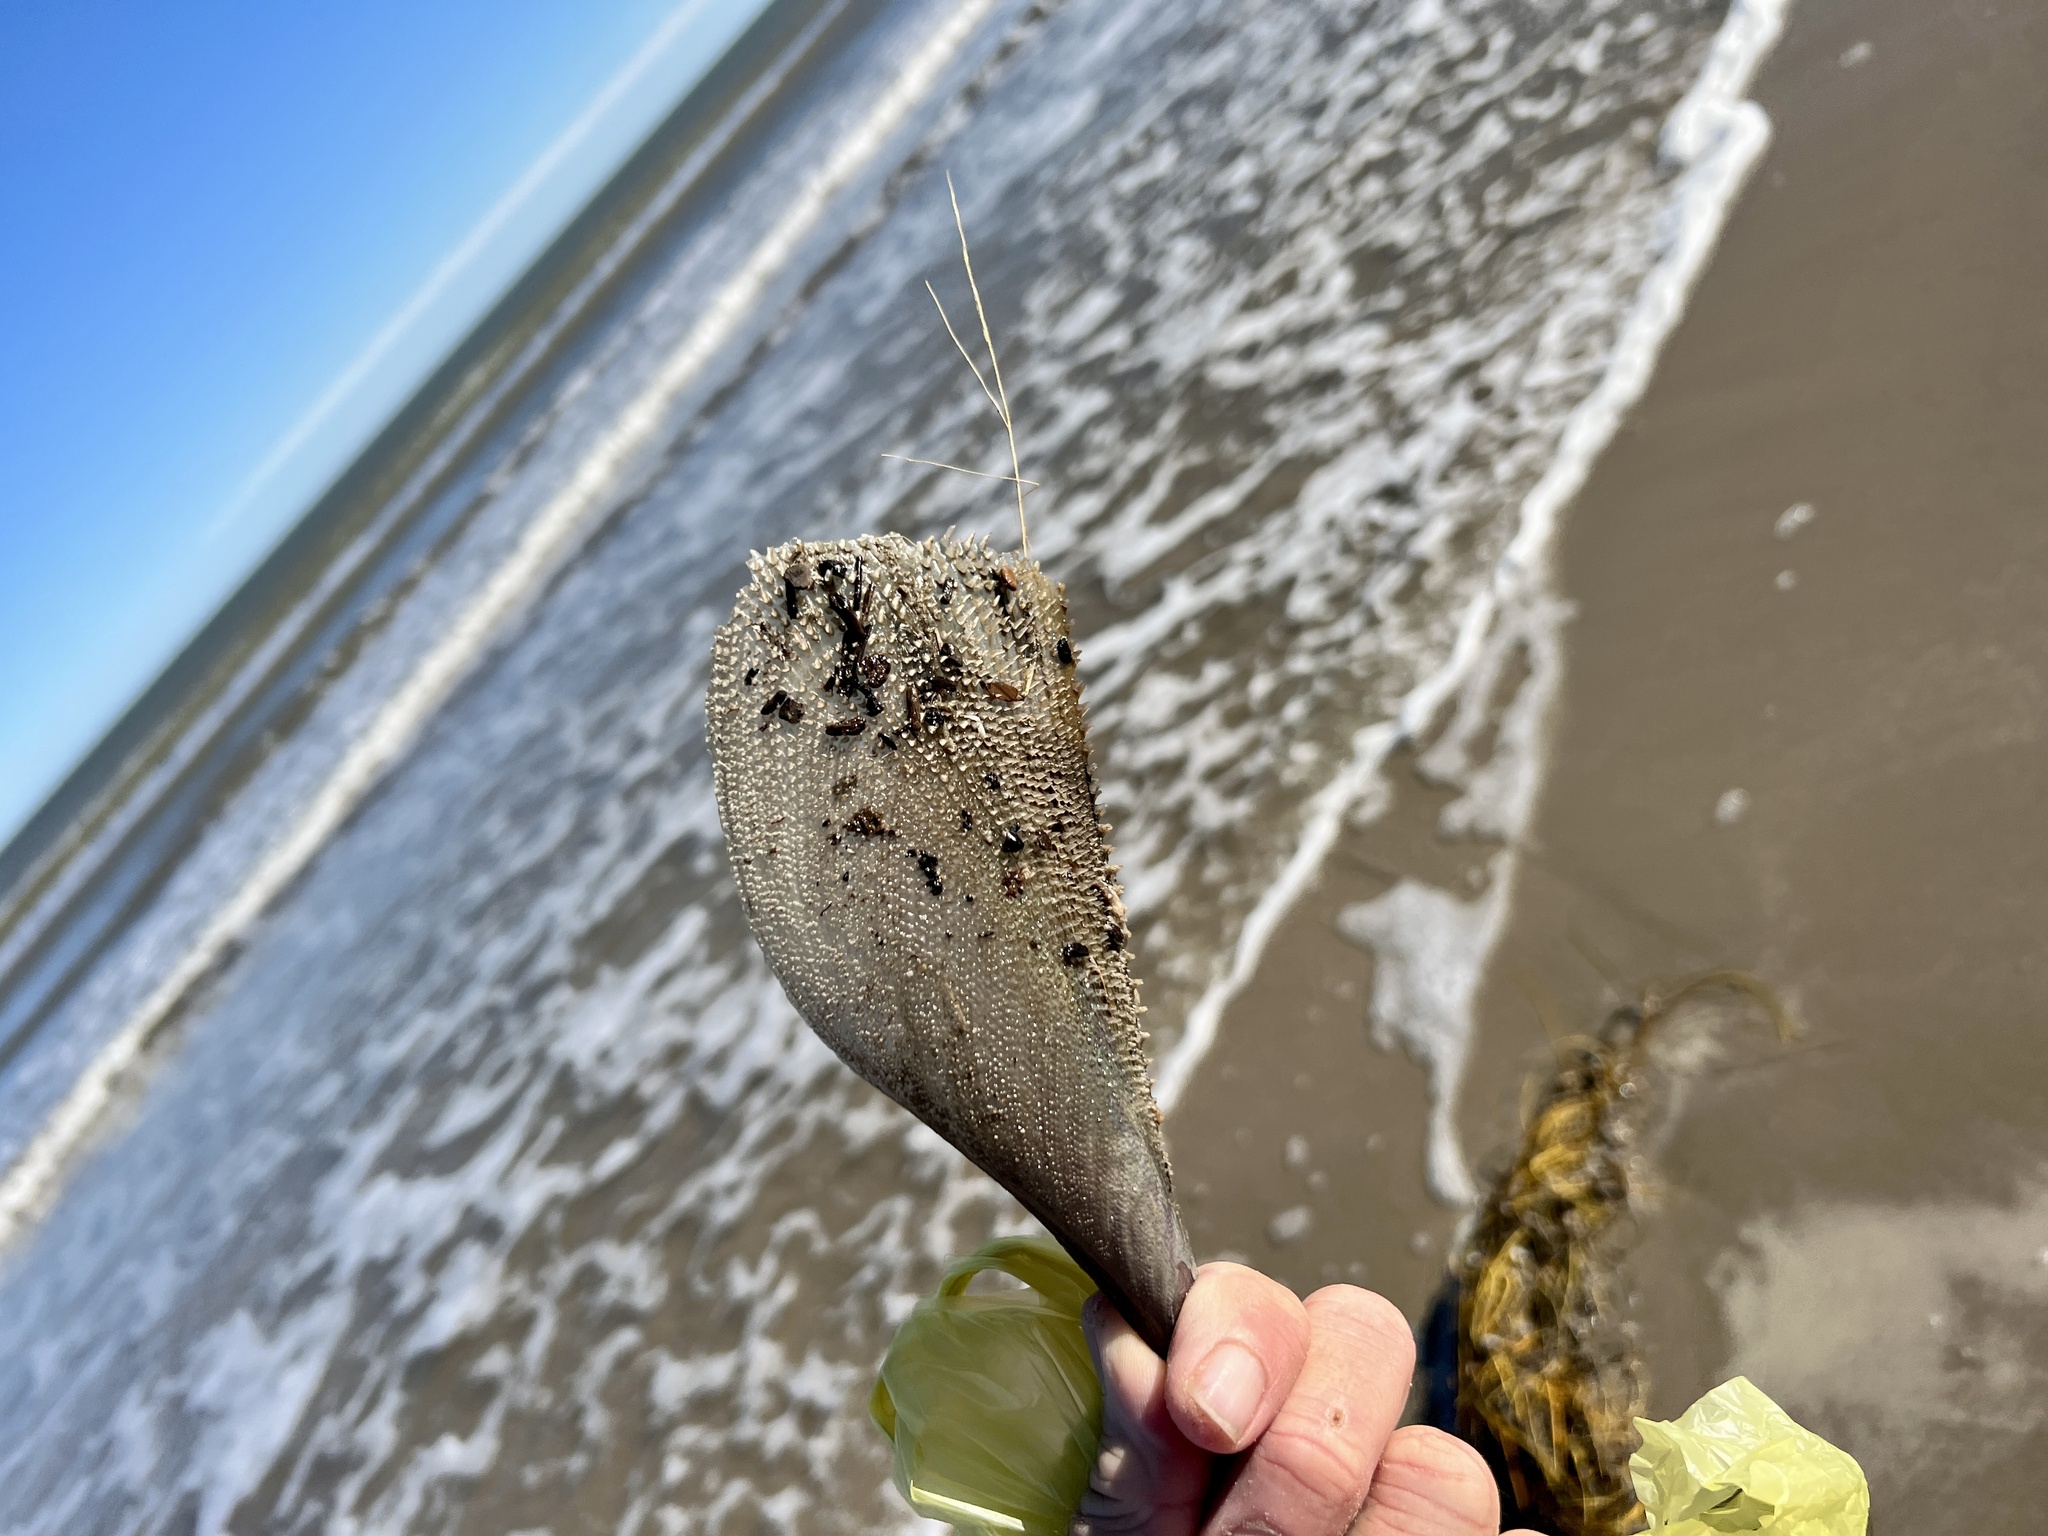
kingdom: Animalia
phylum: Mollusca
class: Bivalvia
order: Ostreida
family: Pinnidae
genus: Atrina
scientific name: Atrina serrata
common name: Saw-toothed penshell
